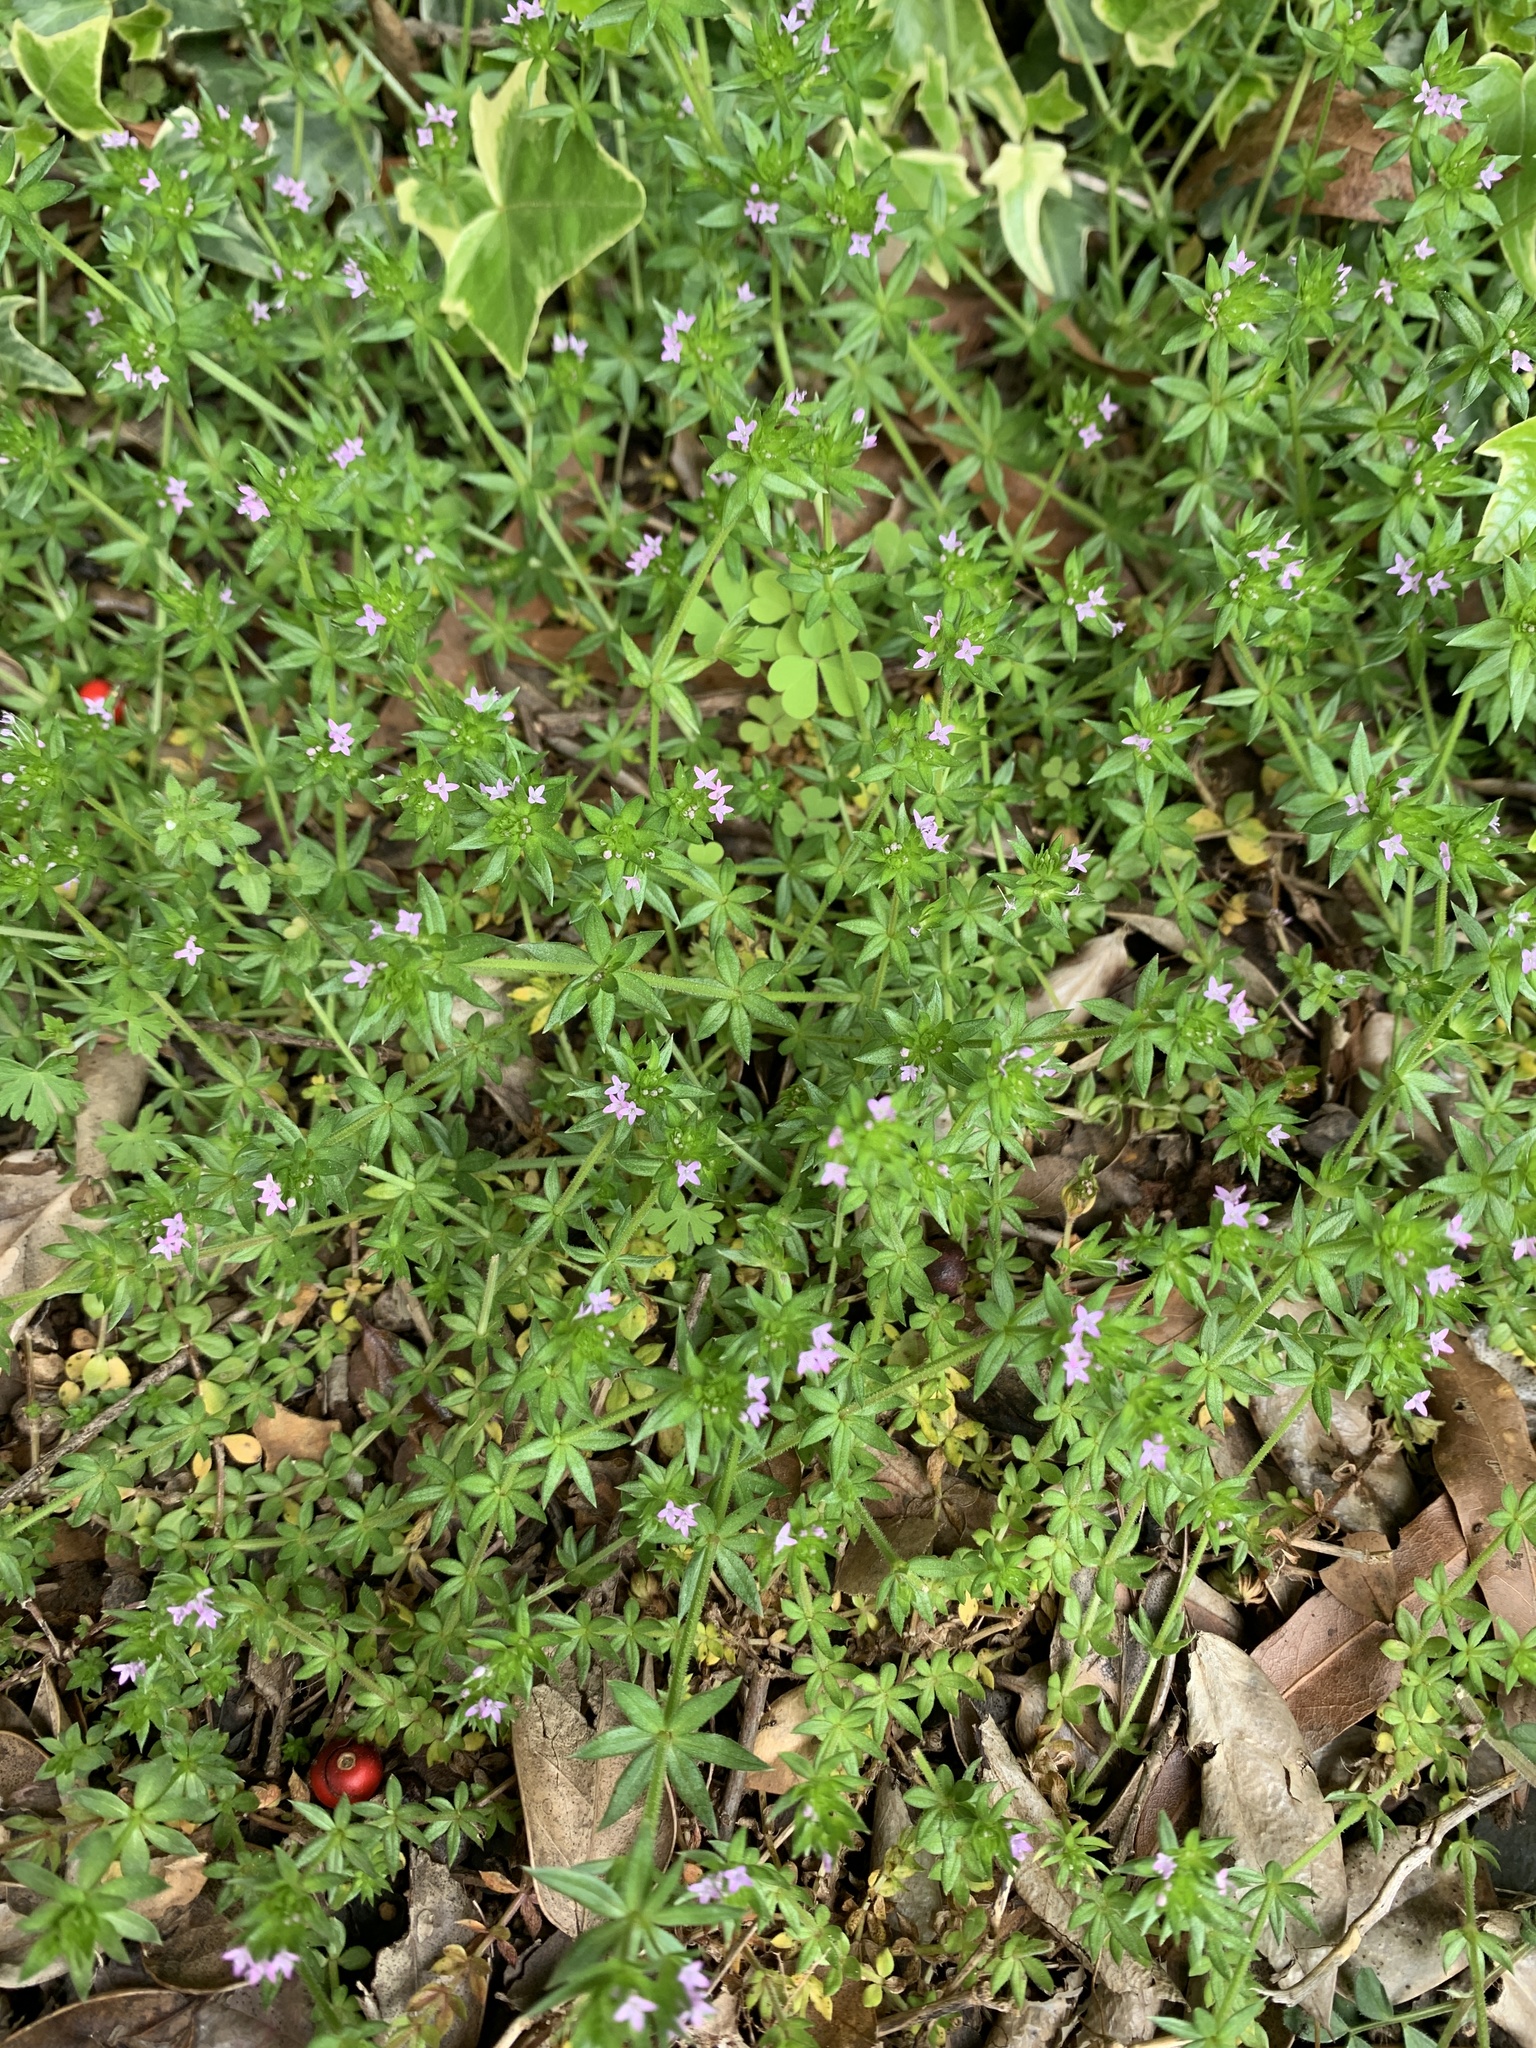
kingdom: Plantae
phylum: Tracheophyta
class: Magnoliopsida
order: Gentianales
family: Rubiaceae
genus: Sherardia
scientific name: Sherardia arvensis
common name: Field madder
